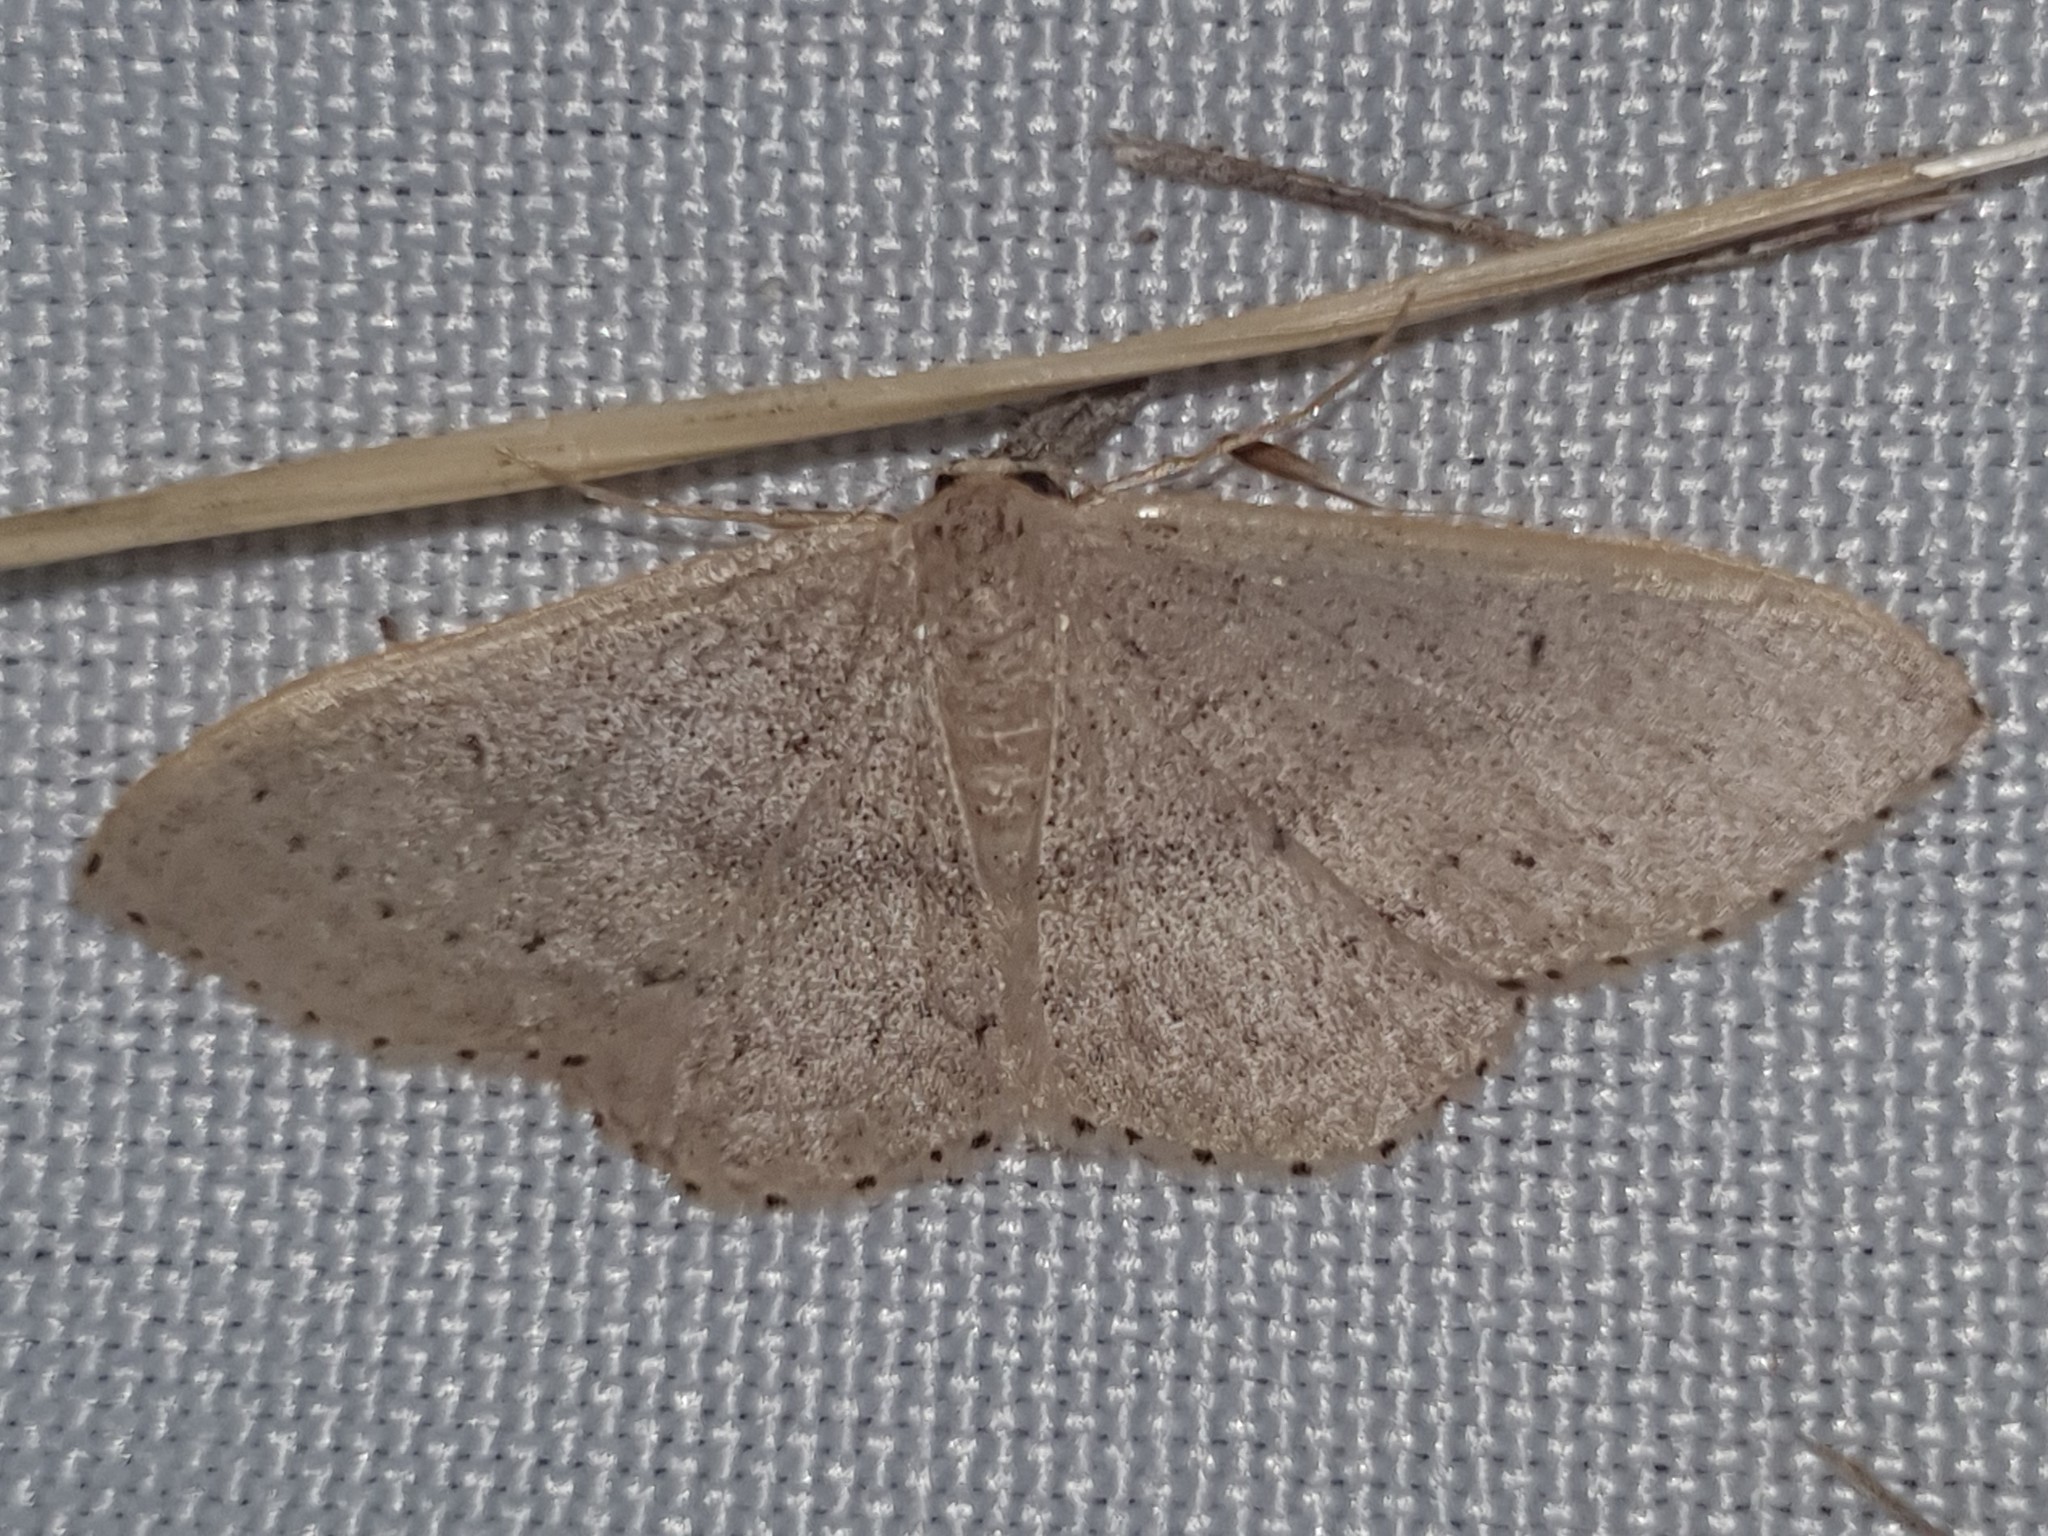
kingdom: Animalia
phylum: Arthropoda
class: Insecta
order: Lepidoptera
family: Geometridae
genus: Idaea
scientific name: Idaea eugeniata
